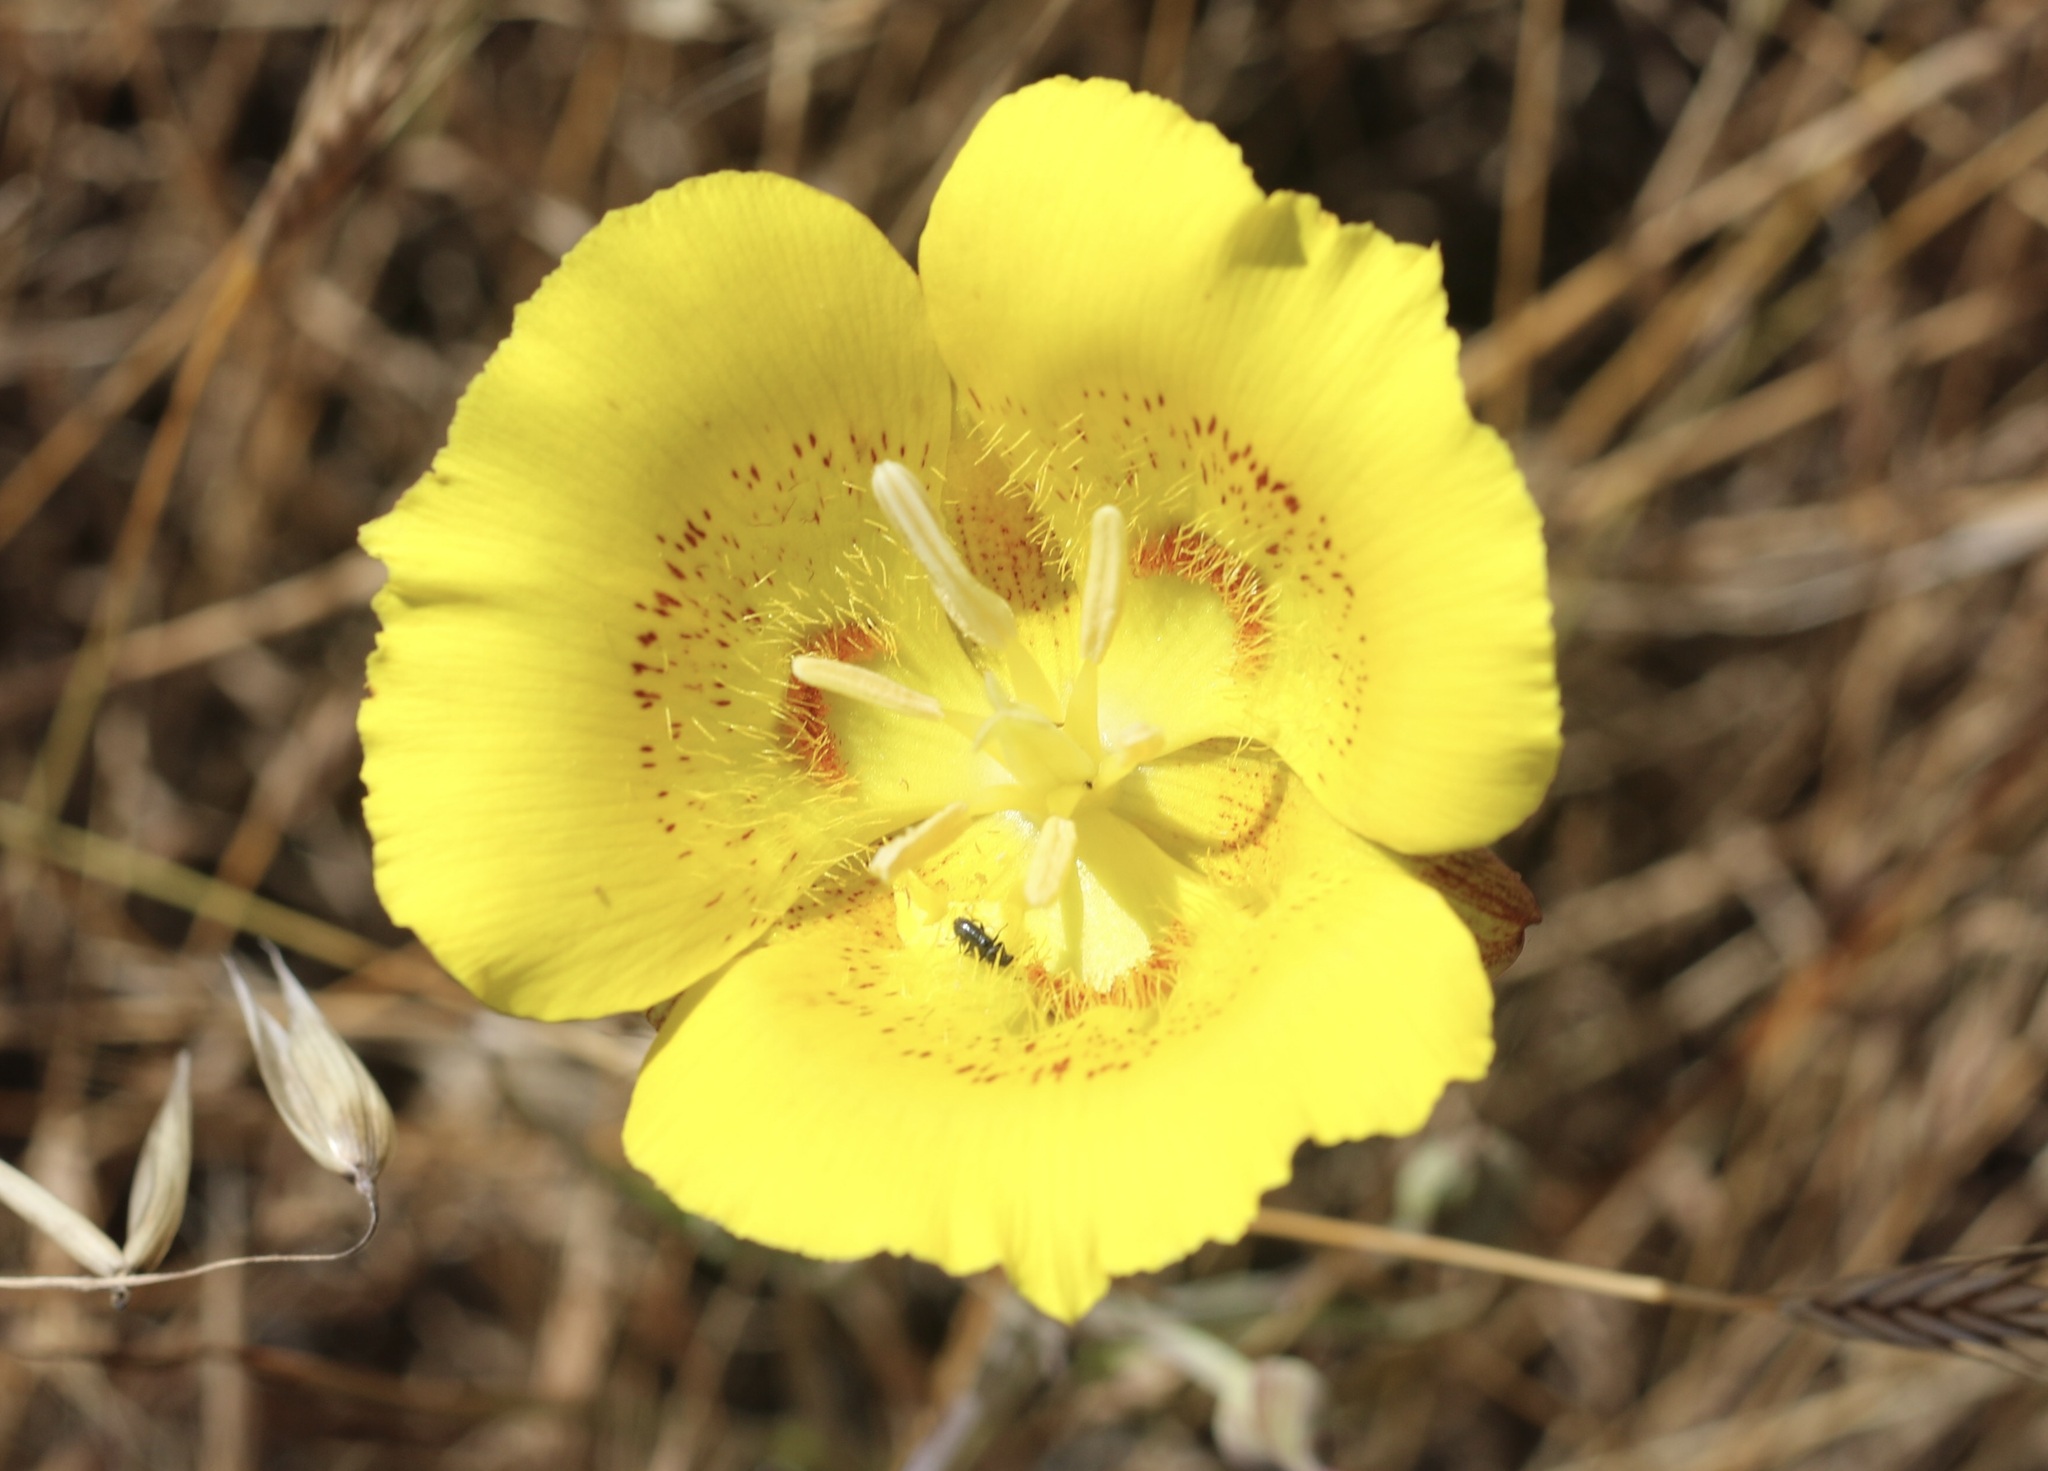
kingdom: Plantae
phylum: Tracheophyta
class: Liliopsida
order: Liliales
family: Liliaceae
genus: Calochortus
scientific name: Calochortus luteus
